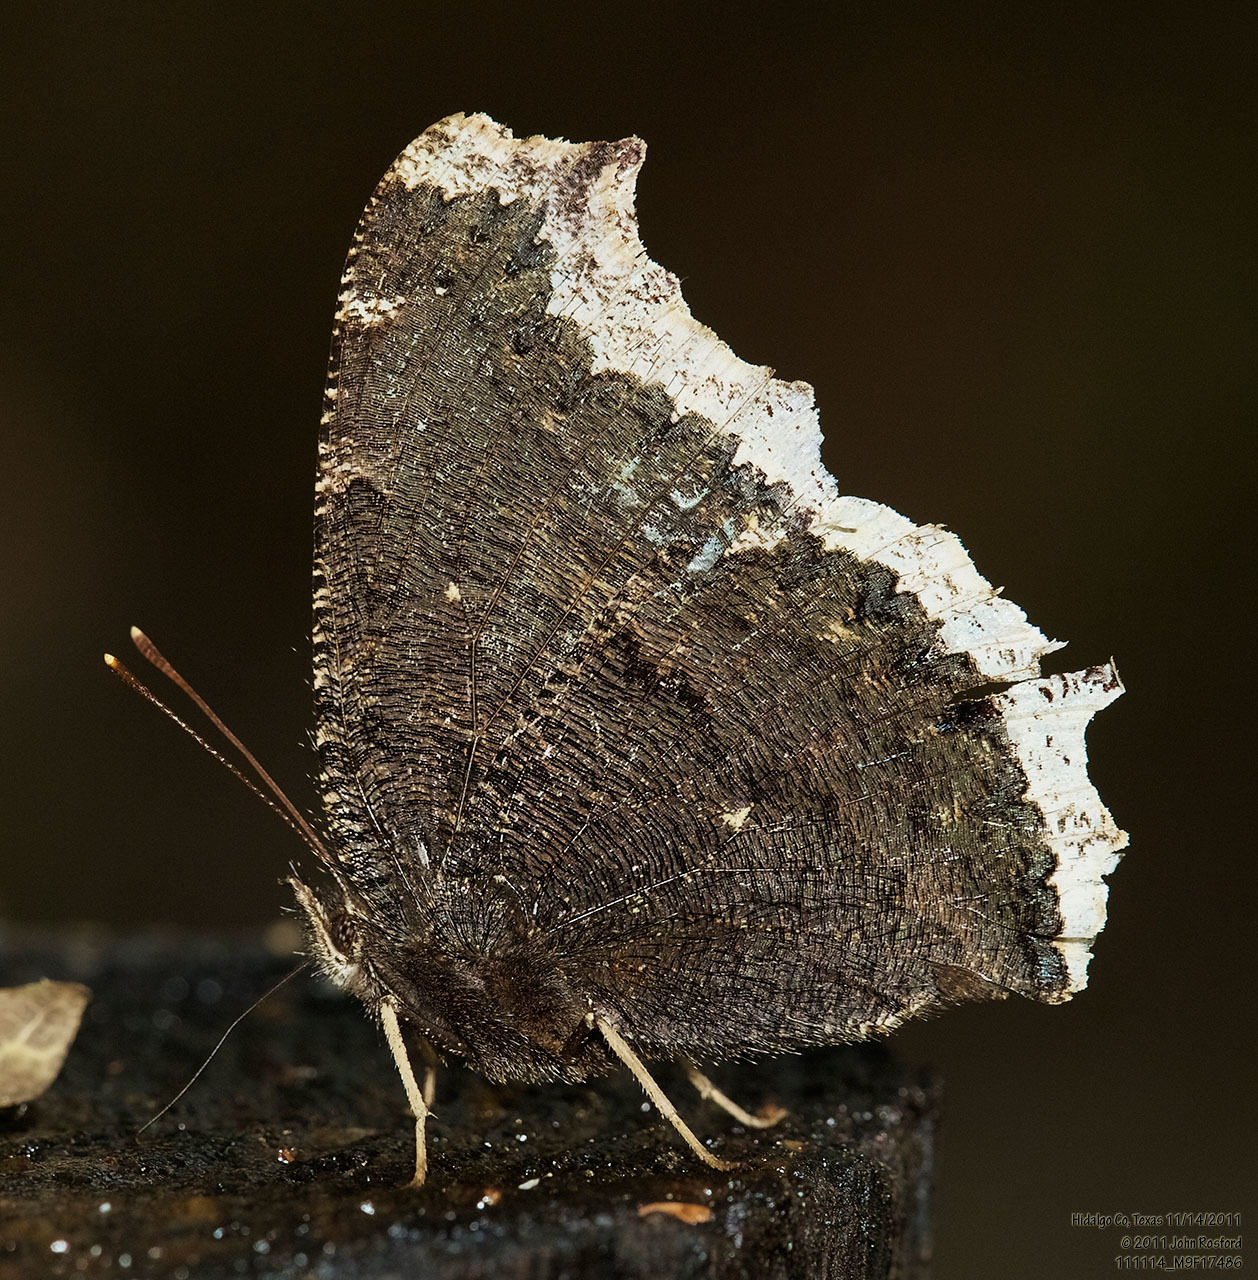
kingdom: Animalia
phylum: Arthropoda
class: Insecta
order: Lepidoptera
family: Nymphalidae
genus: Nymphalis
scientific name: Nymphalis antiopa
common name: Camberwell beauty
